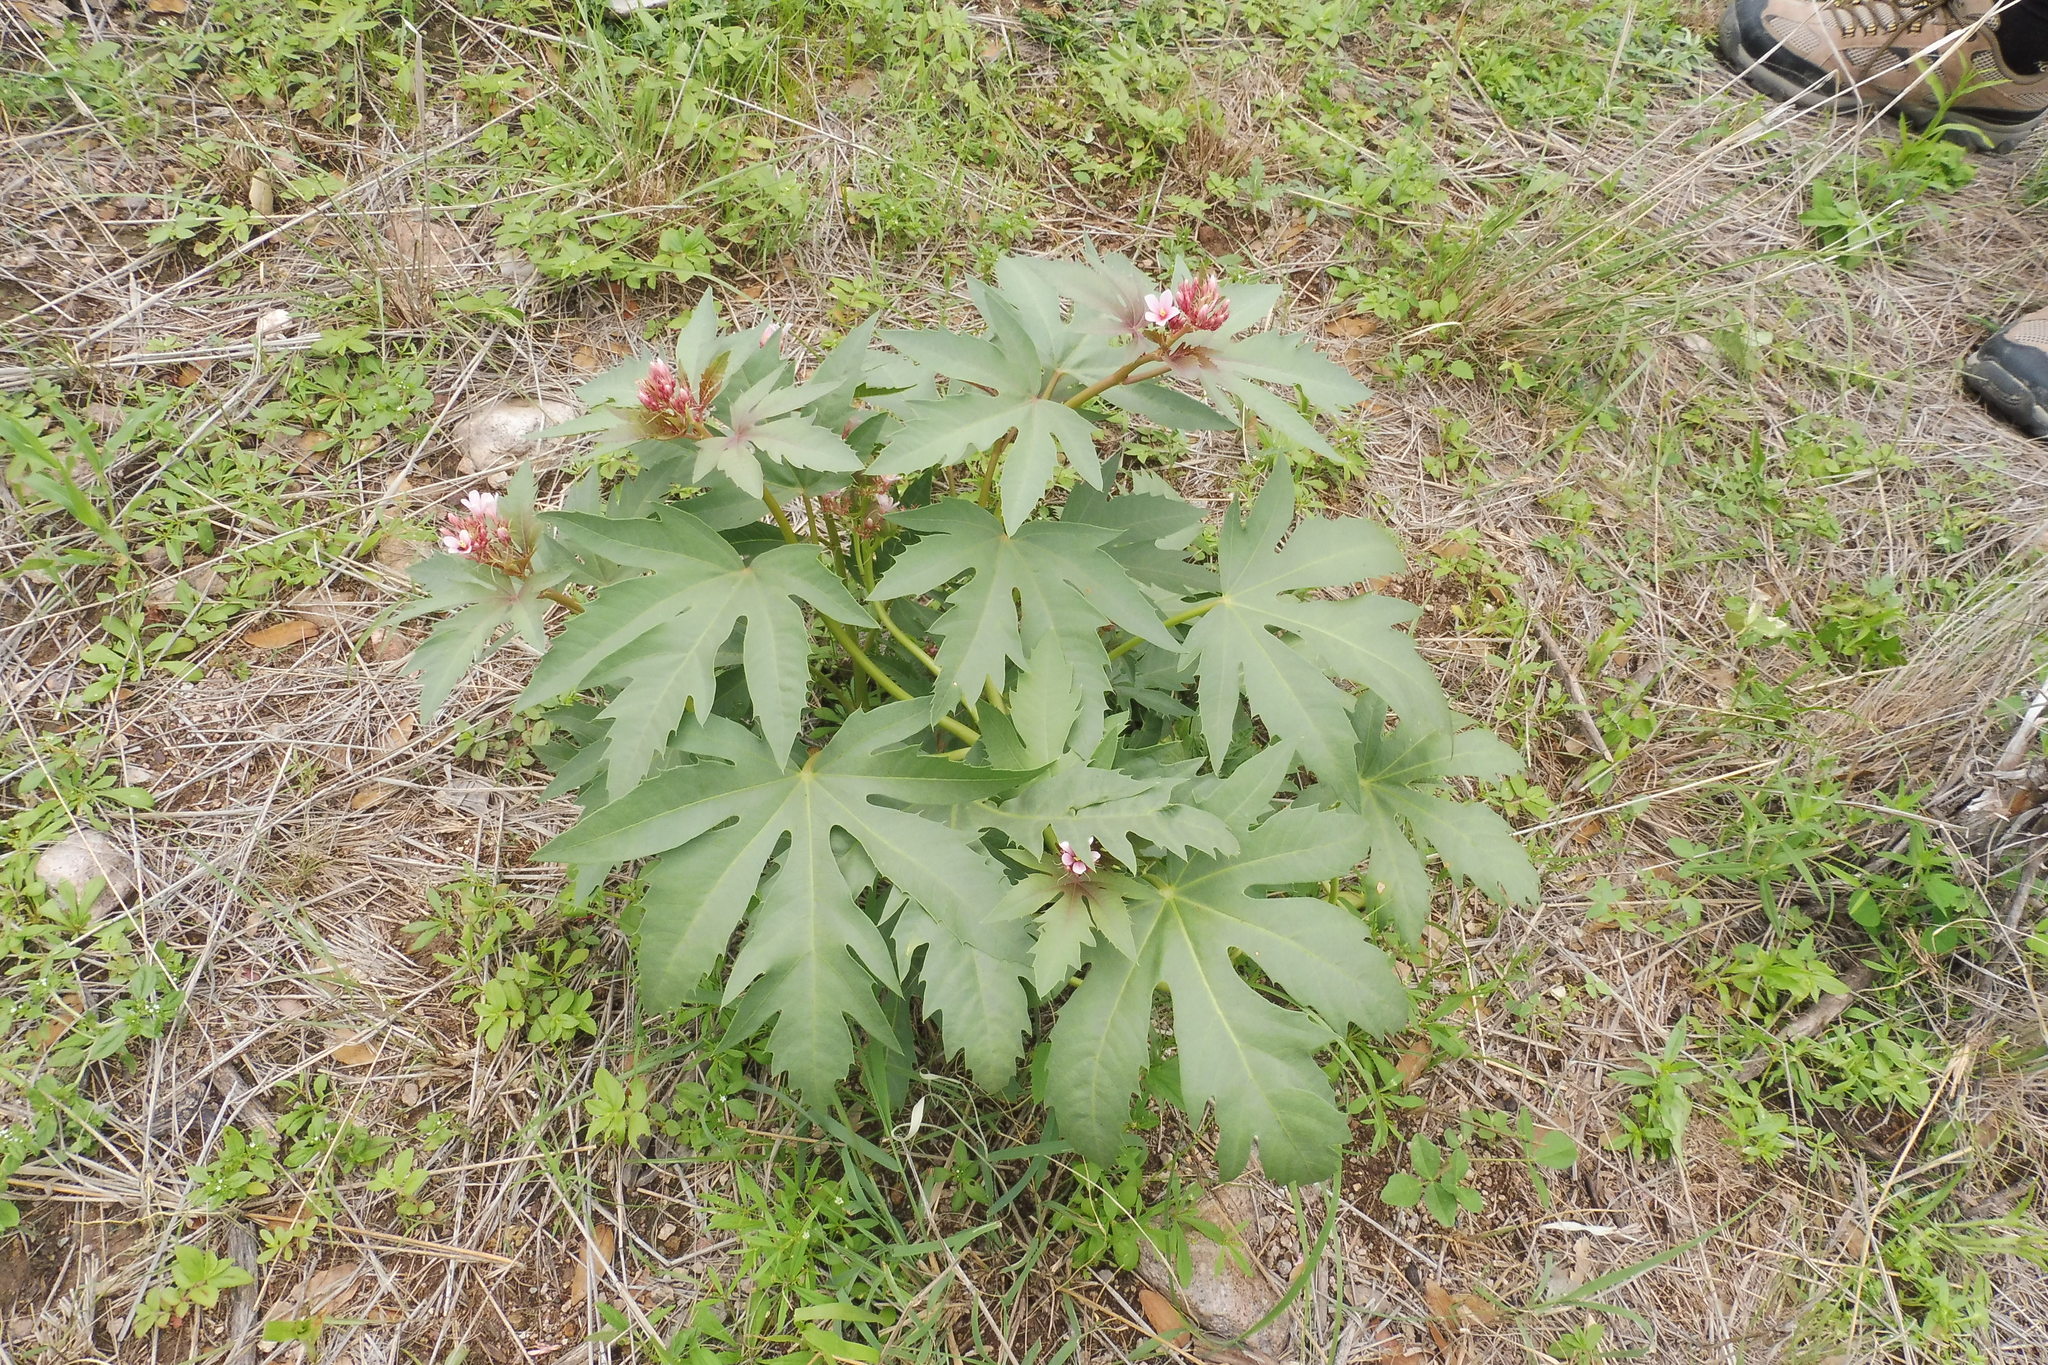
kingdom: Plantae
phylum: Tracheophyta
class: Magnoliopsida
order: Malpighiales
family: Euphorbiaceae
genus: Jatropha
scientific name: Jatropha macrorhiza
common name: Ragged nettlespurge
